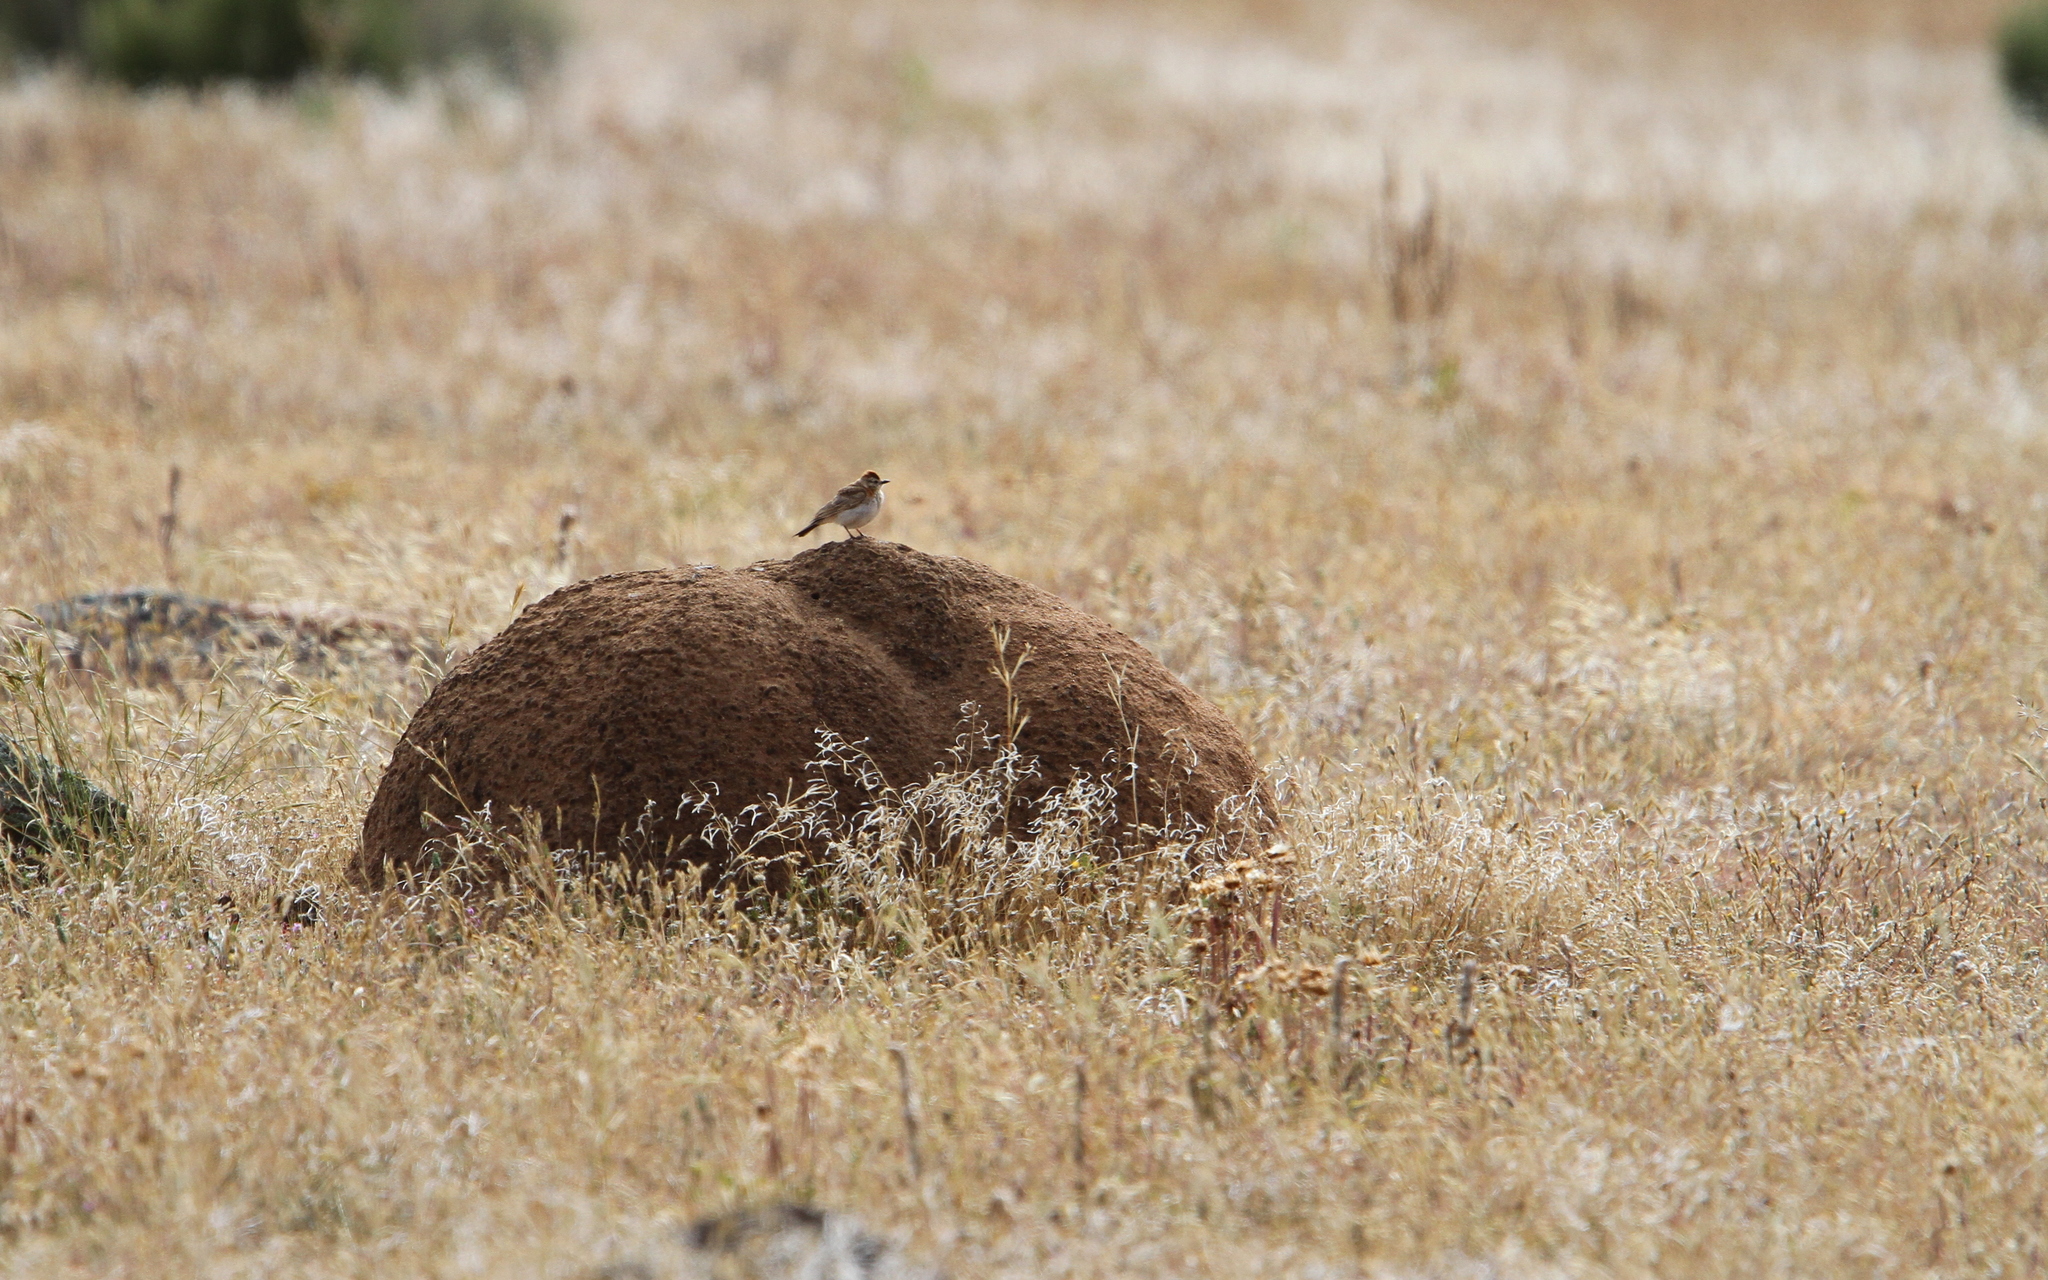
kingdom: Animalia
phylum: Chordata
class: Aves
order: Passeriformes
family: Alaudidae
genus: Calandrella
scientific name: Calandrella cinerea
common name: Red-capped lark
